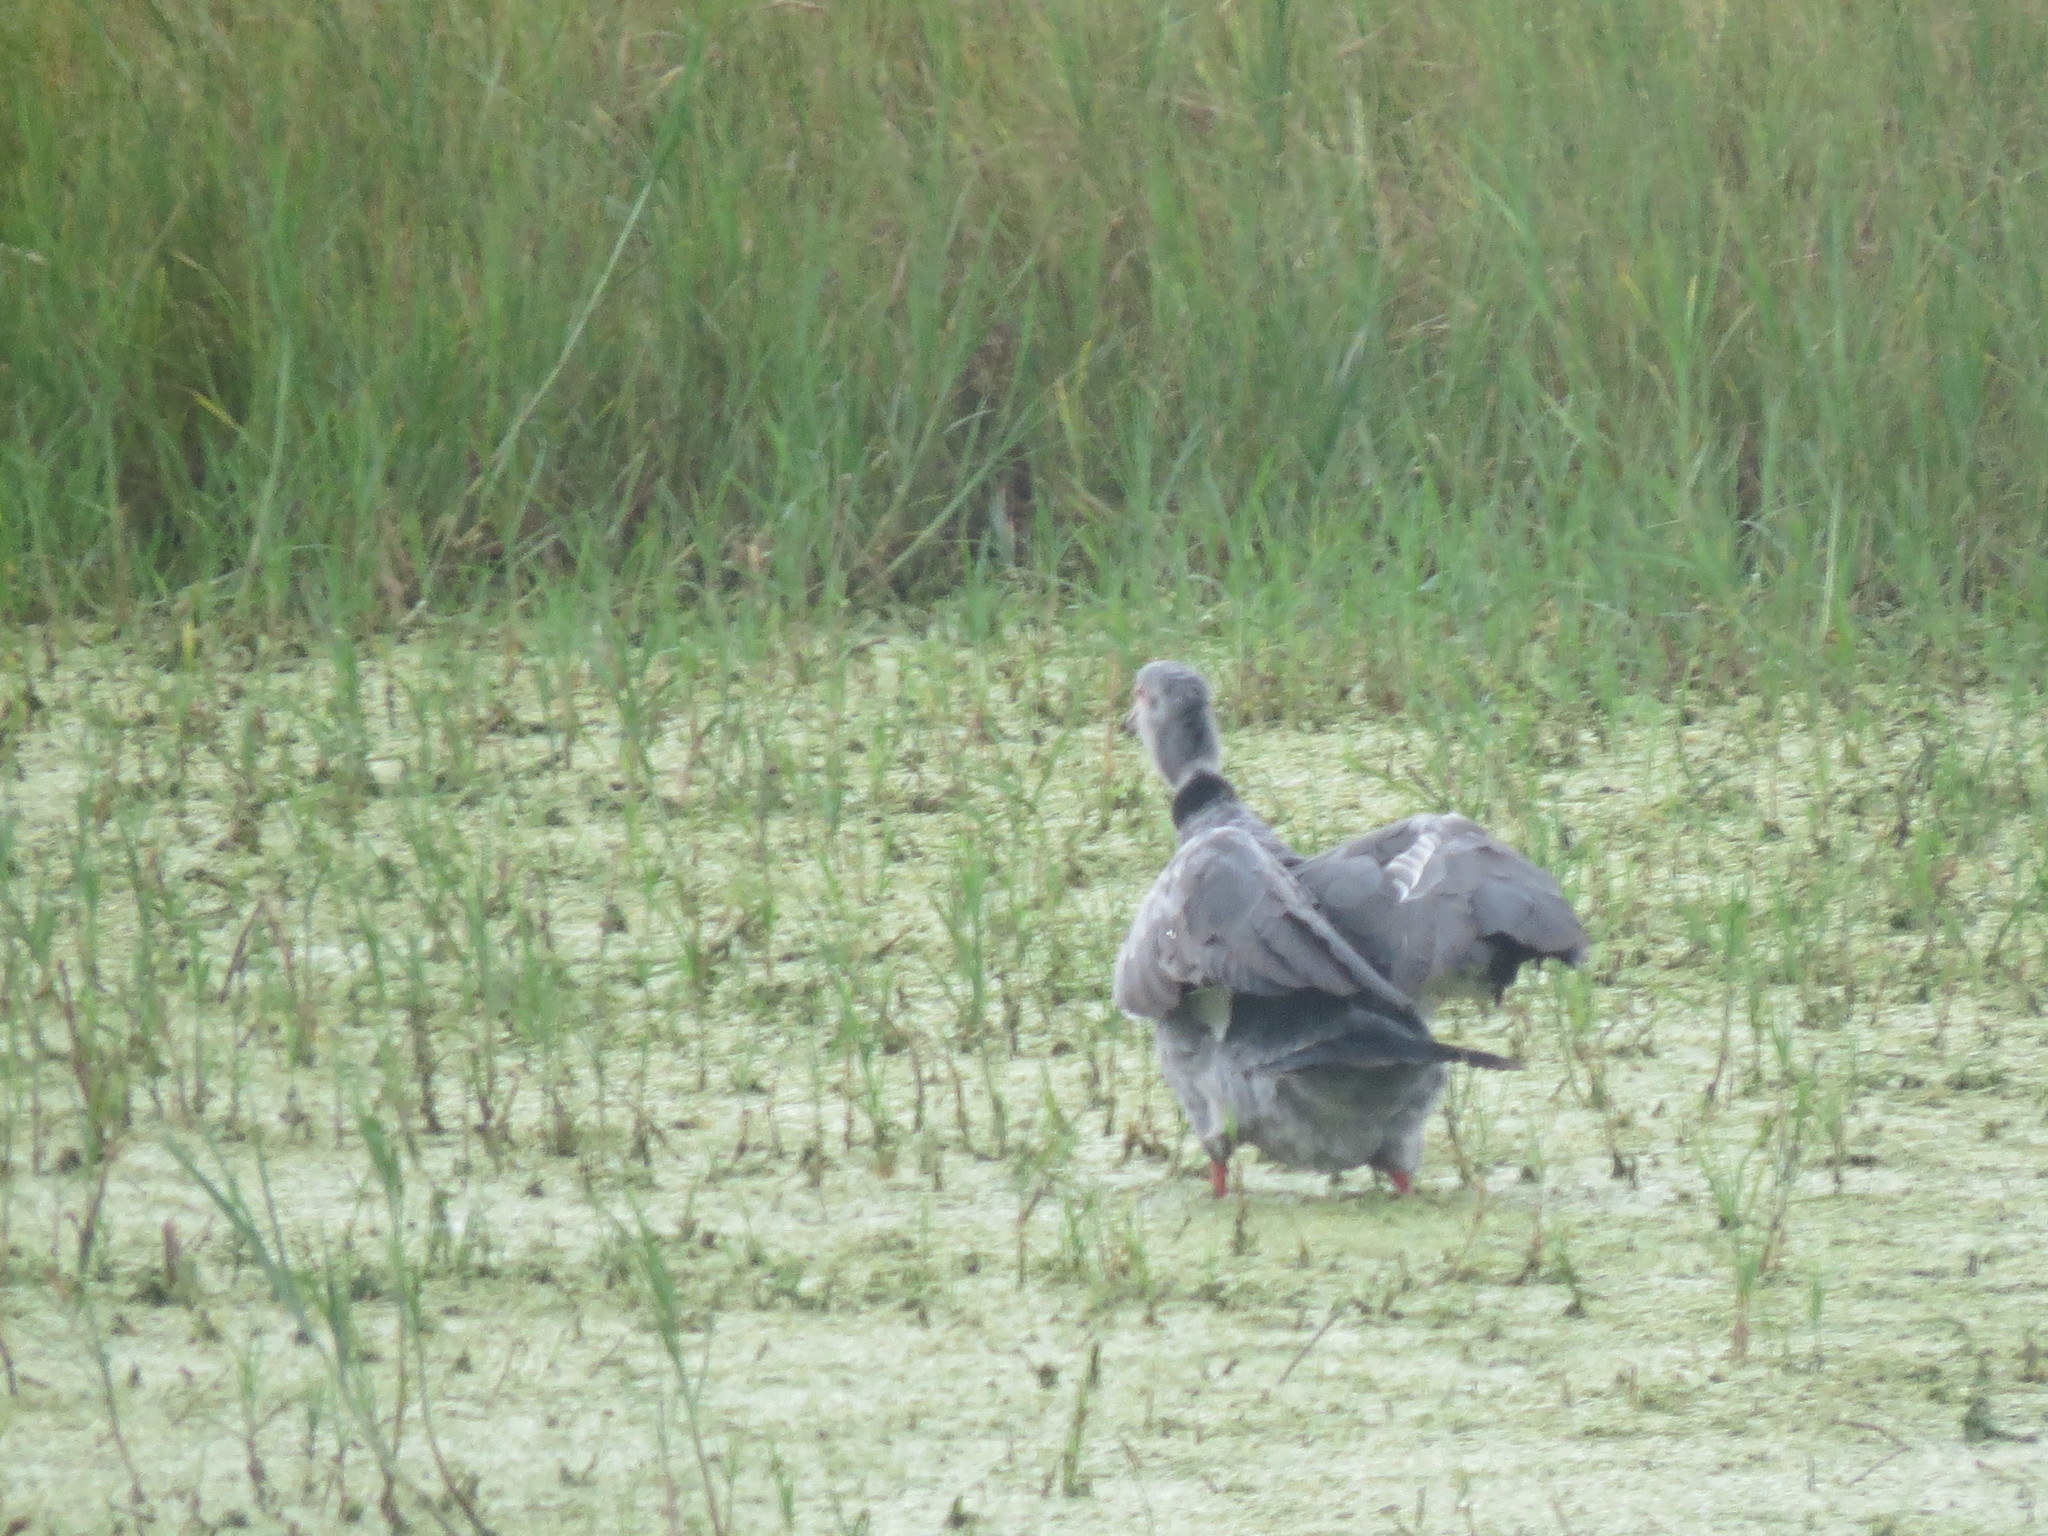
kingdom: Animalia
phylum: Chordata
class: Aves
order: Anseriformes
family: Anhimidae
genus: Chauna
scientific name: Chauna torquata
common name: Southern screamer
